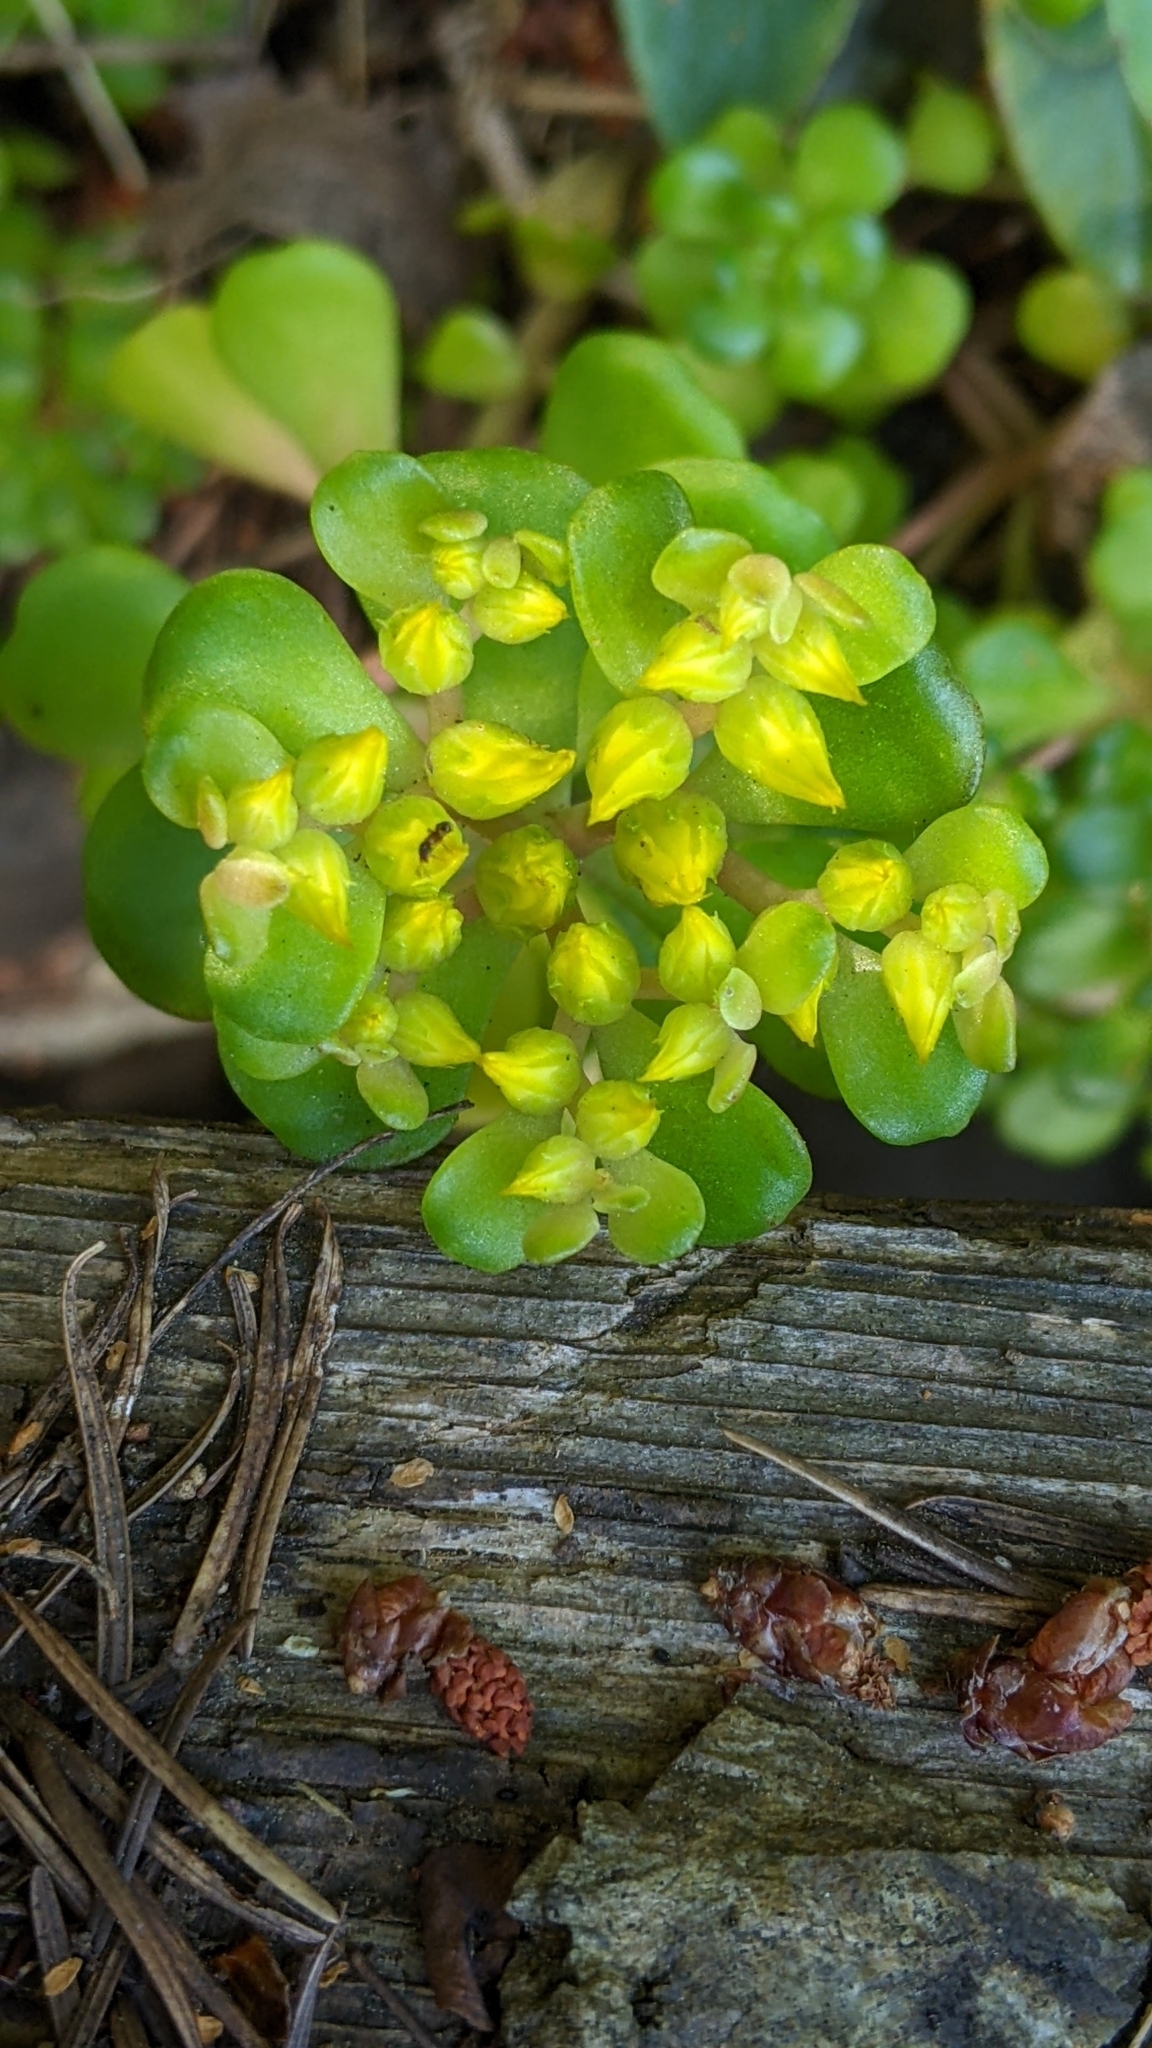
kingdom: Plantae
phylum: Tracheophyta
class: Magnoliopsida
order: Saxifragales
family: Crassulaceae
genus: Sedum
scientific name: Sedum oreganum
